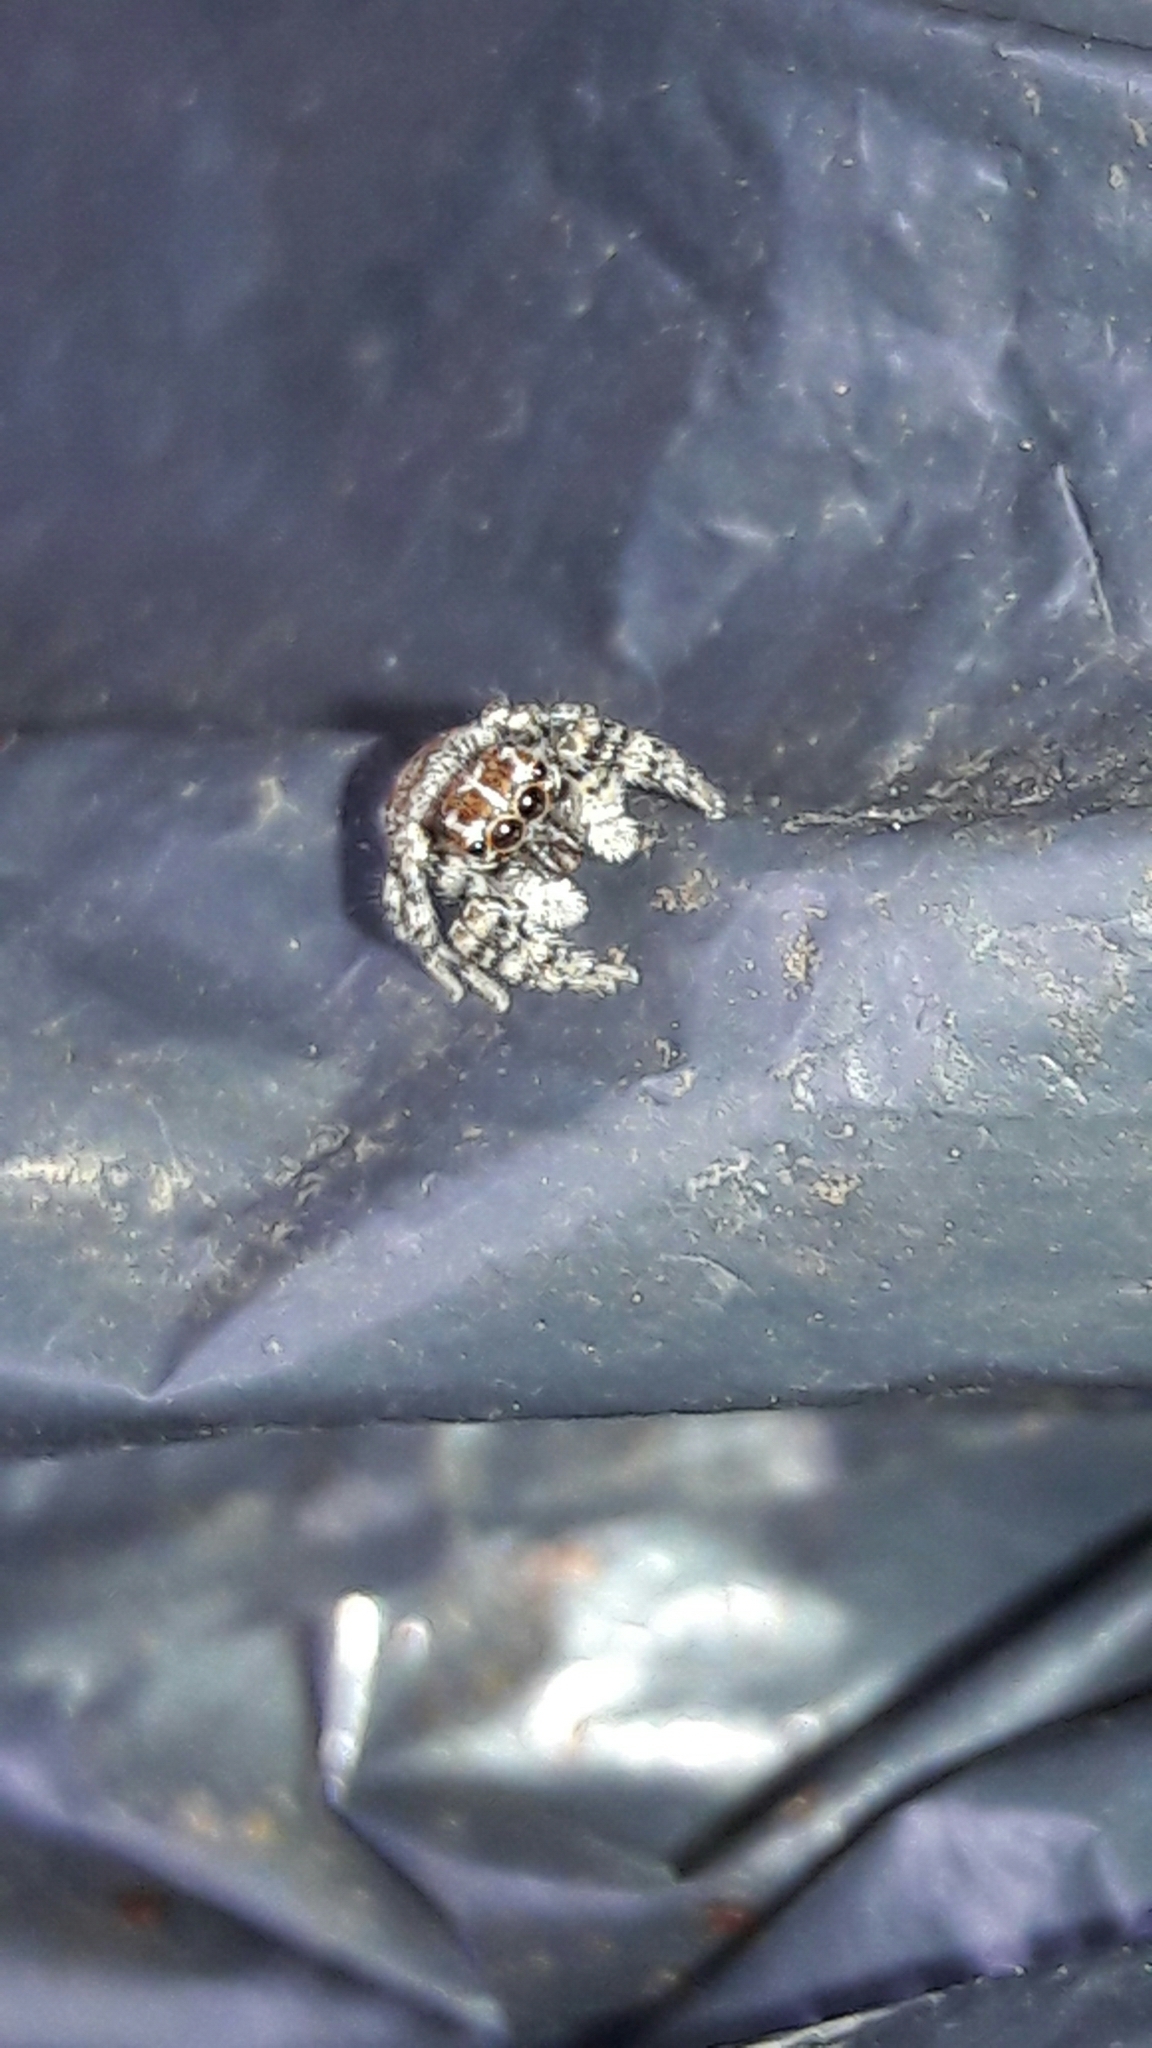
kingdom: Animalia
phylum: Arthropoda
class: Arachnida
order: Araneae
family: Salticidae
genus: Sumampattus
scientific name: Sumampattus quinqueradiatus
